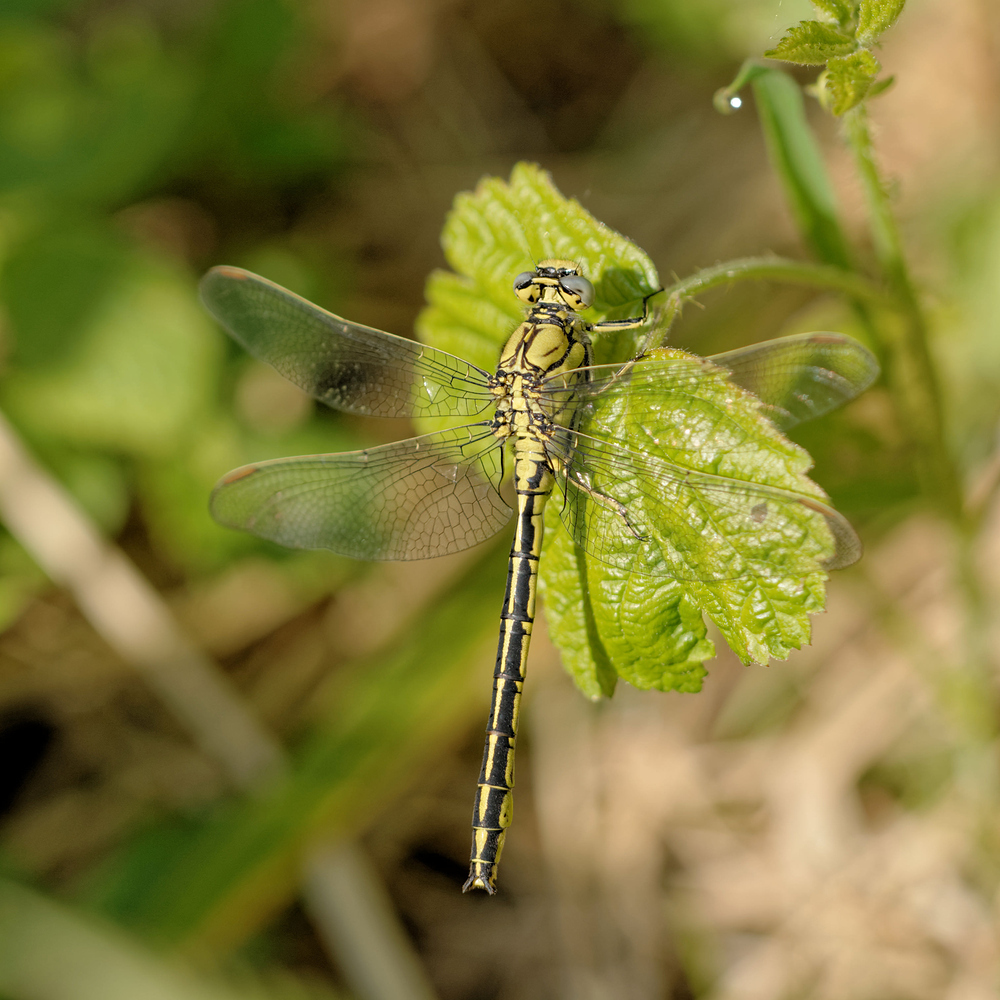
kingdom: Animalia
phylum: Arthropoda
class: Insecta
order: Odonata
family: Gomphidae
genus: Gomphus
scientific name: Gomphus pulchellus
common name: Western clubtail
